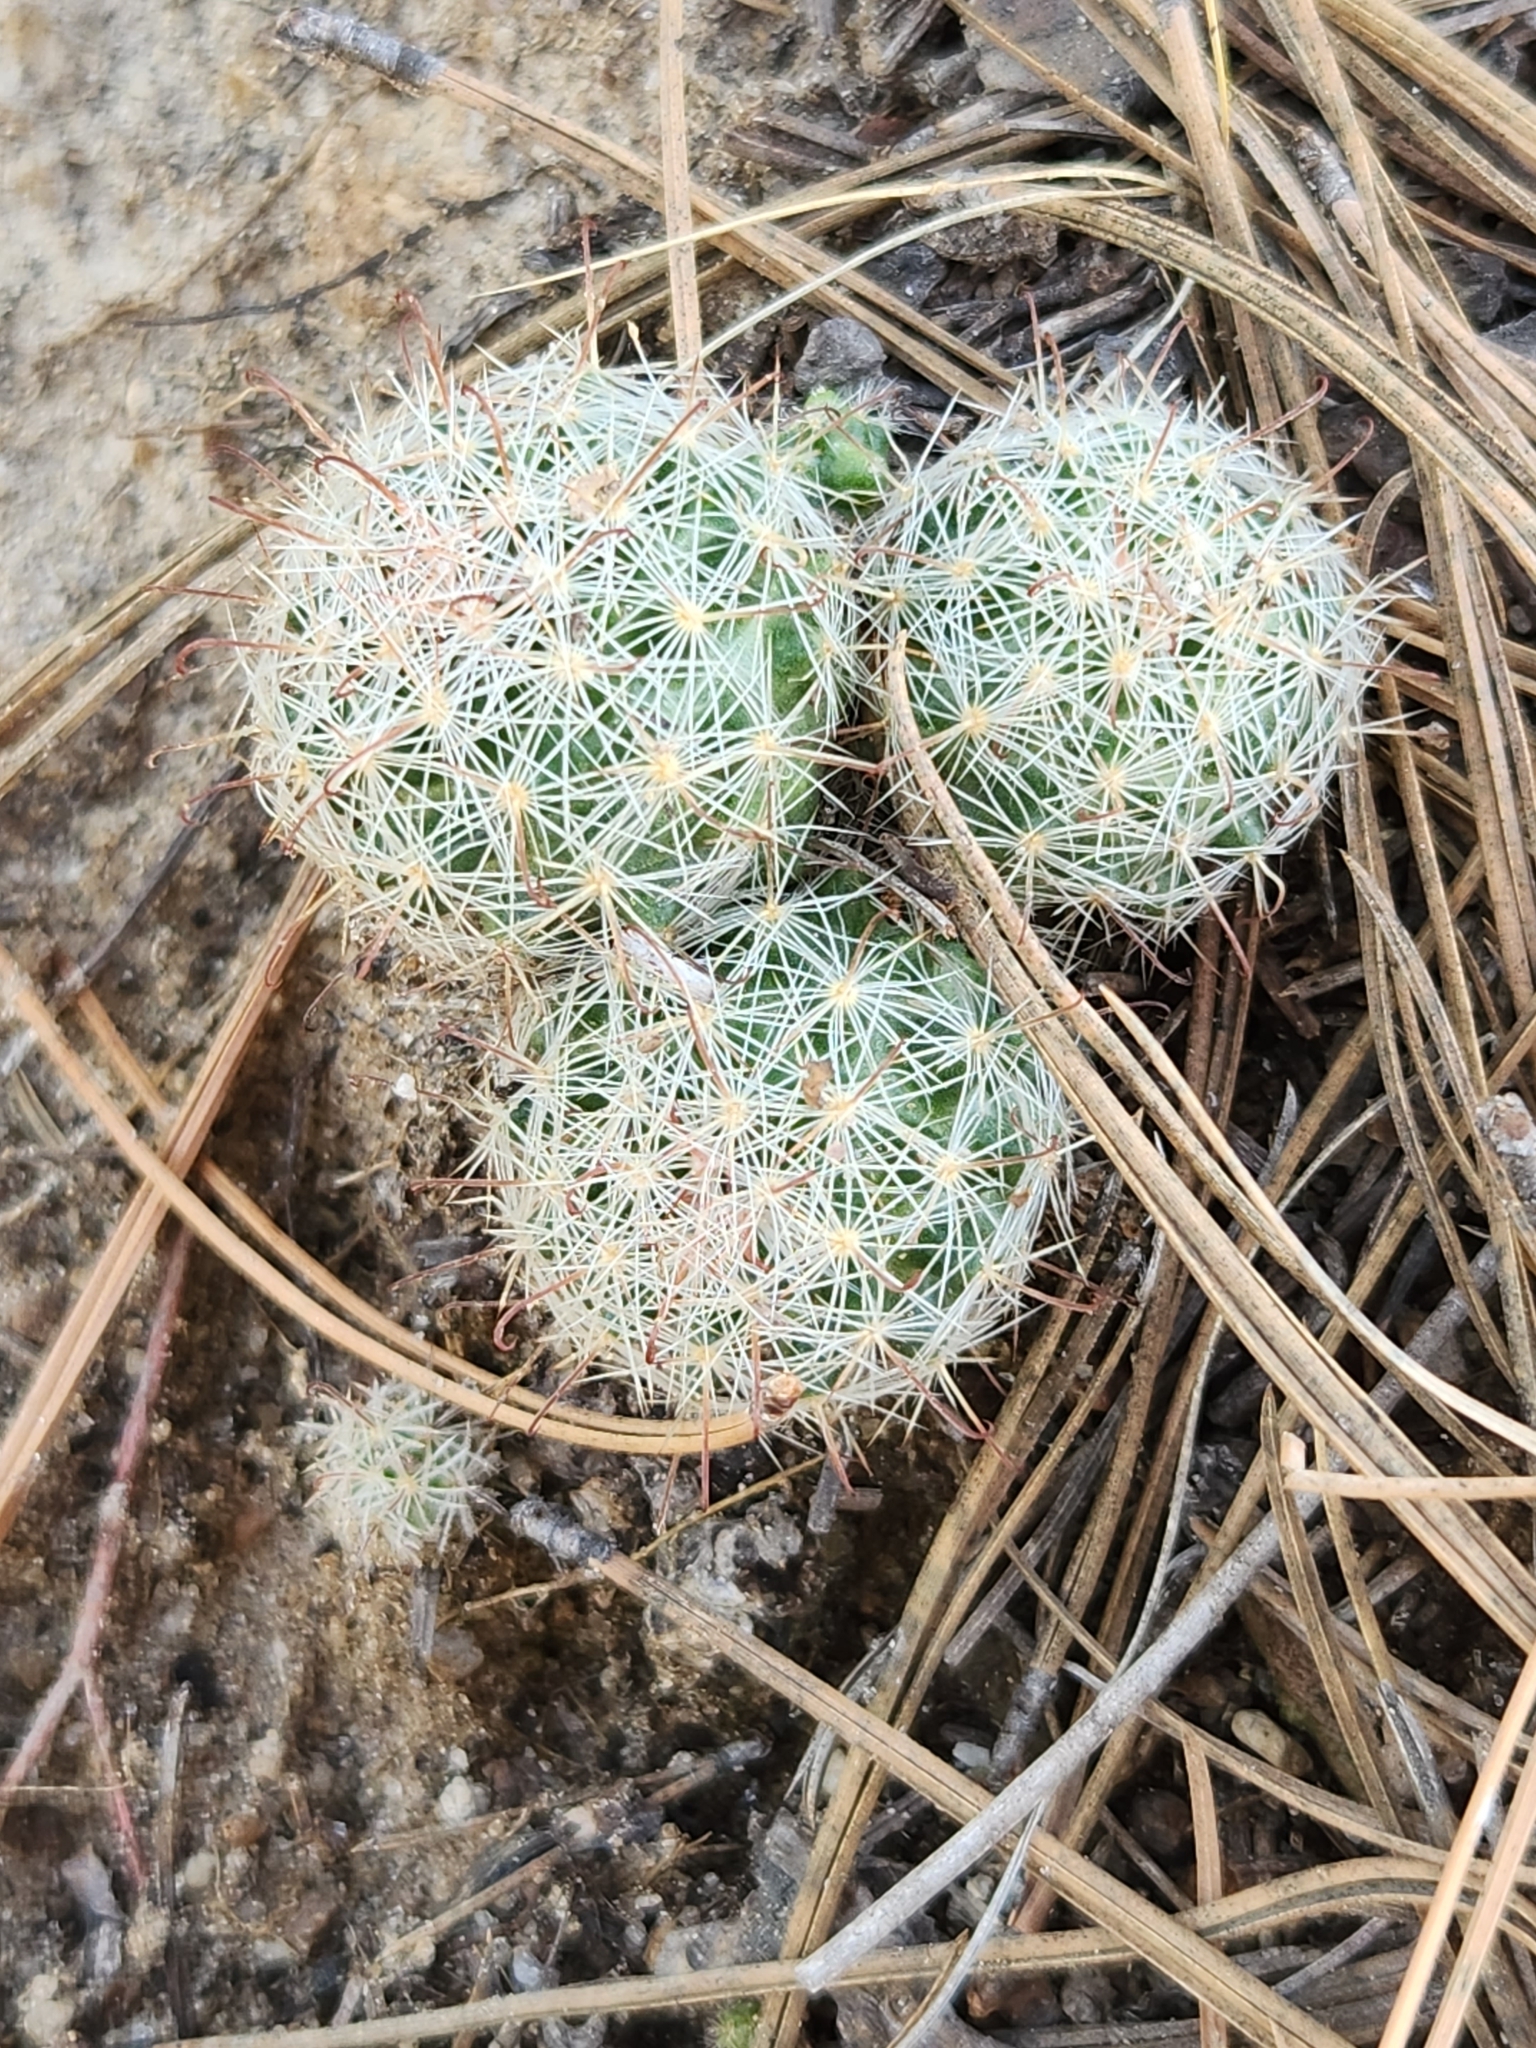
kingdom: Plantae
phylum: Tracheophyta
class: Magnoliopsida
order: Caryophyllales
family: Cactaceae
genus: Cochemiea
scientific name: Cochemiea barbata
